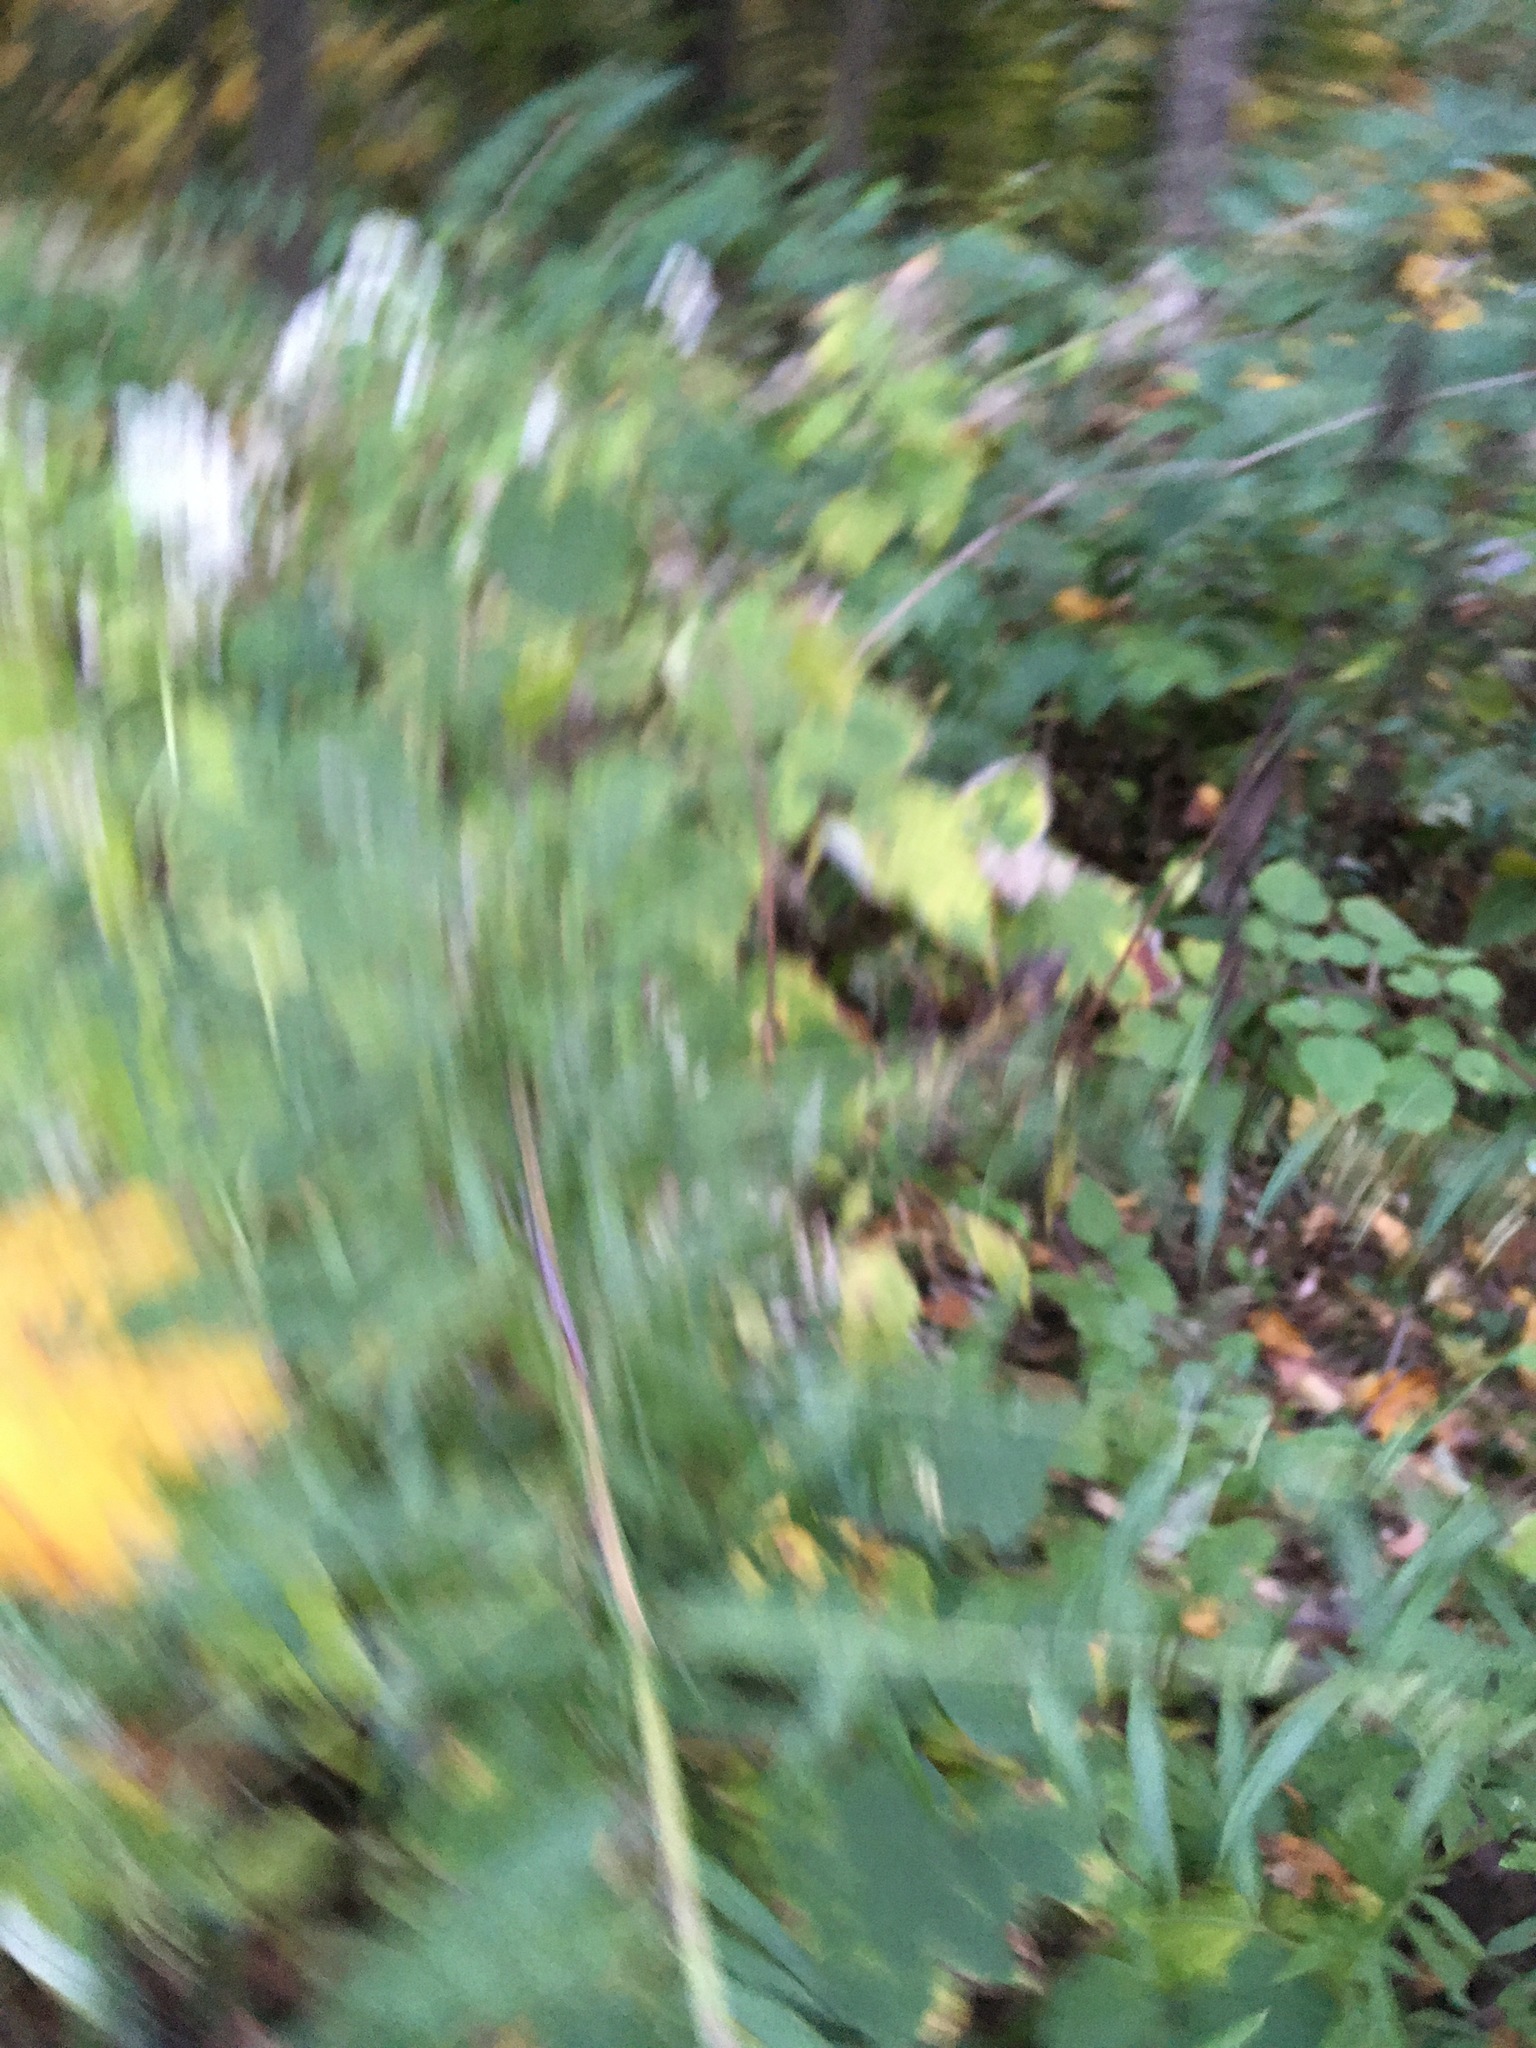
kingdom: Plantae
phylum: Tracheophyta
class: Magnoliopsida
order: Asterales
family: Asteraceae
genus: Artemisia
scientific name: Artemisia vulgaris
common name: Mugwort
